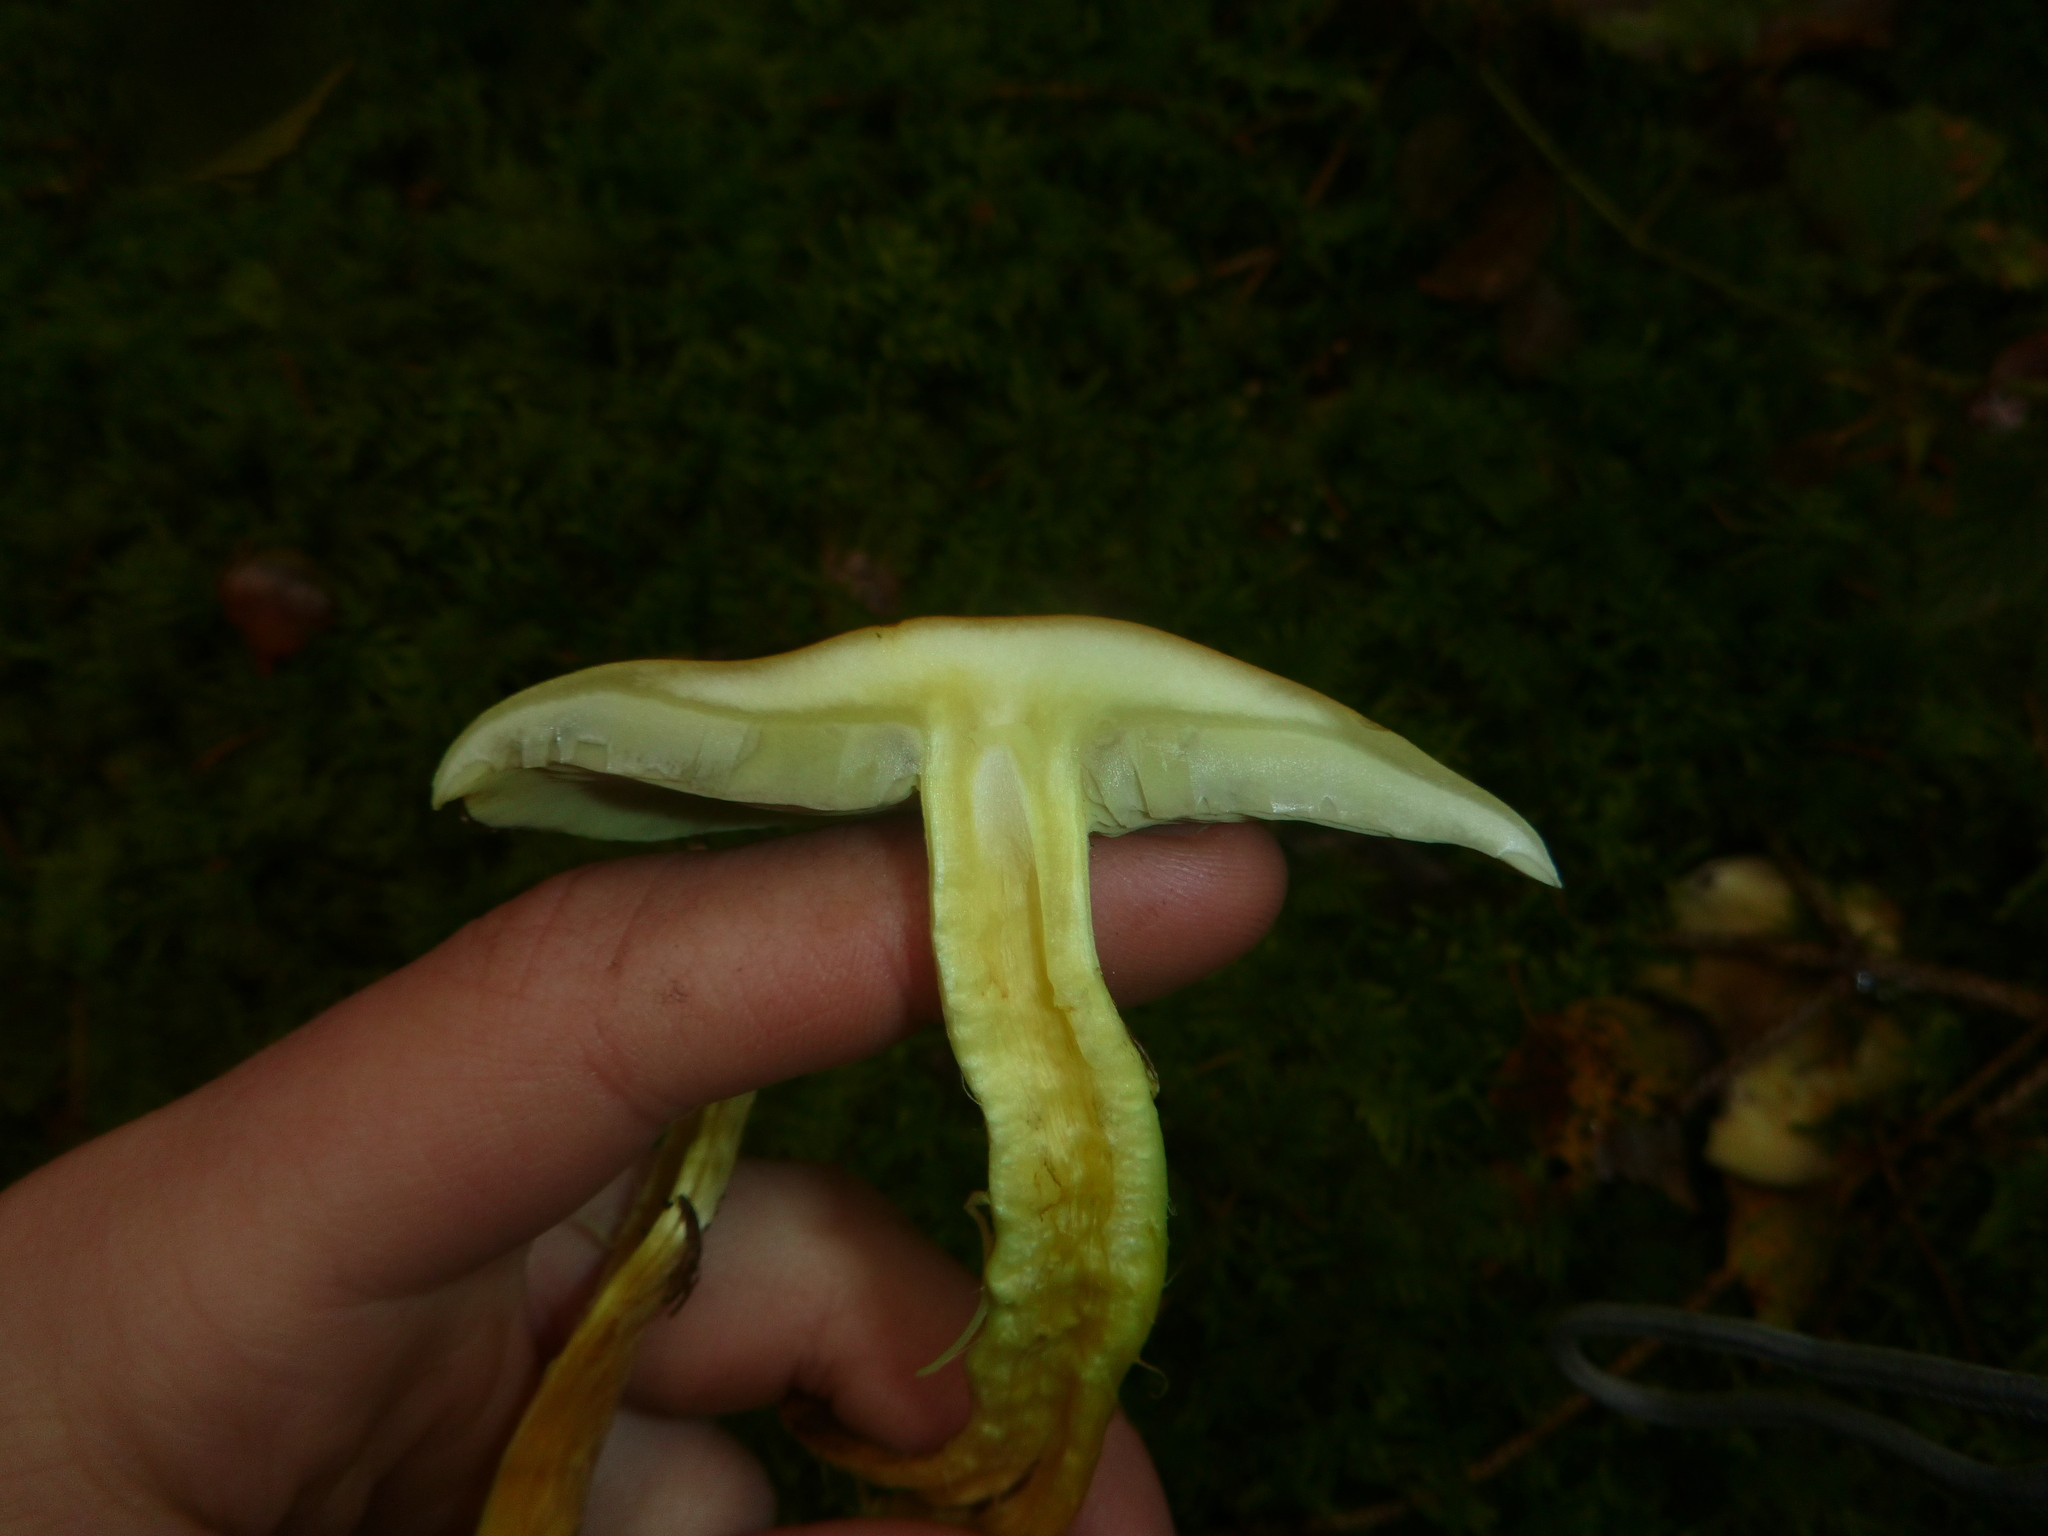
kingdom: Fungi
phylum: Basidiomycota
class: Agaricomycetes
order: Agaricales
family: Strophariaceae
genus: Hypholoma
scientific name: Hypholoma fasciculare
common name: Sulphur tuft
